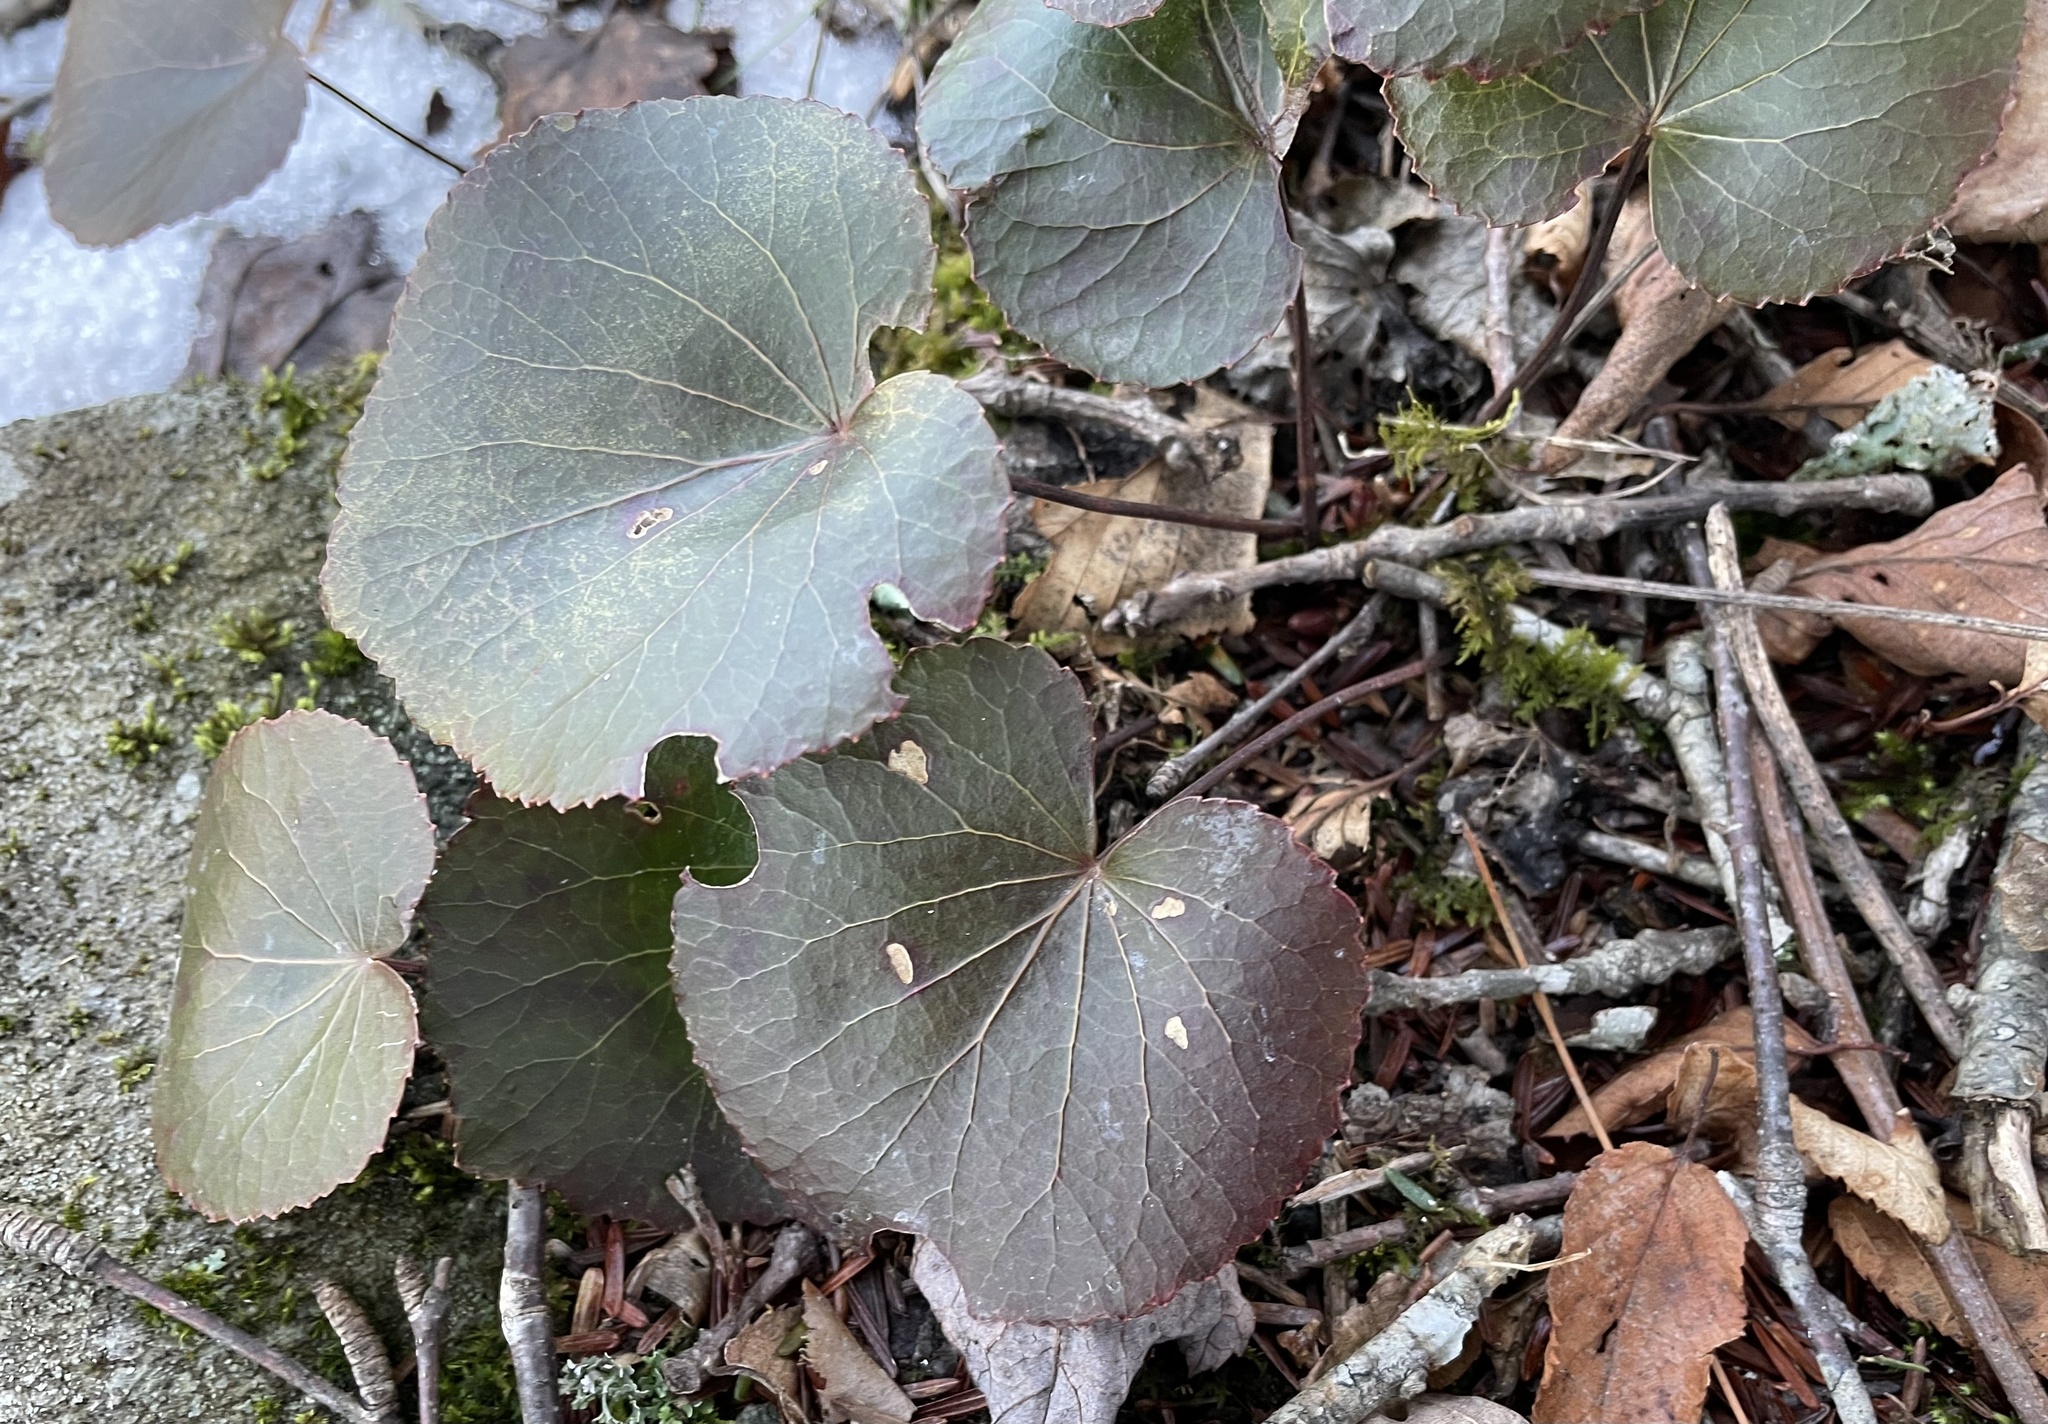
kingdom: Plantae
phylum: Tracheophyta
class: Magnoliopsida
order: Ericales
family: Diapensiaceae
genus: Galax
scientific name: Galax urceolata
